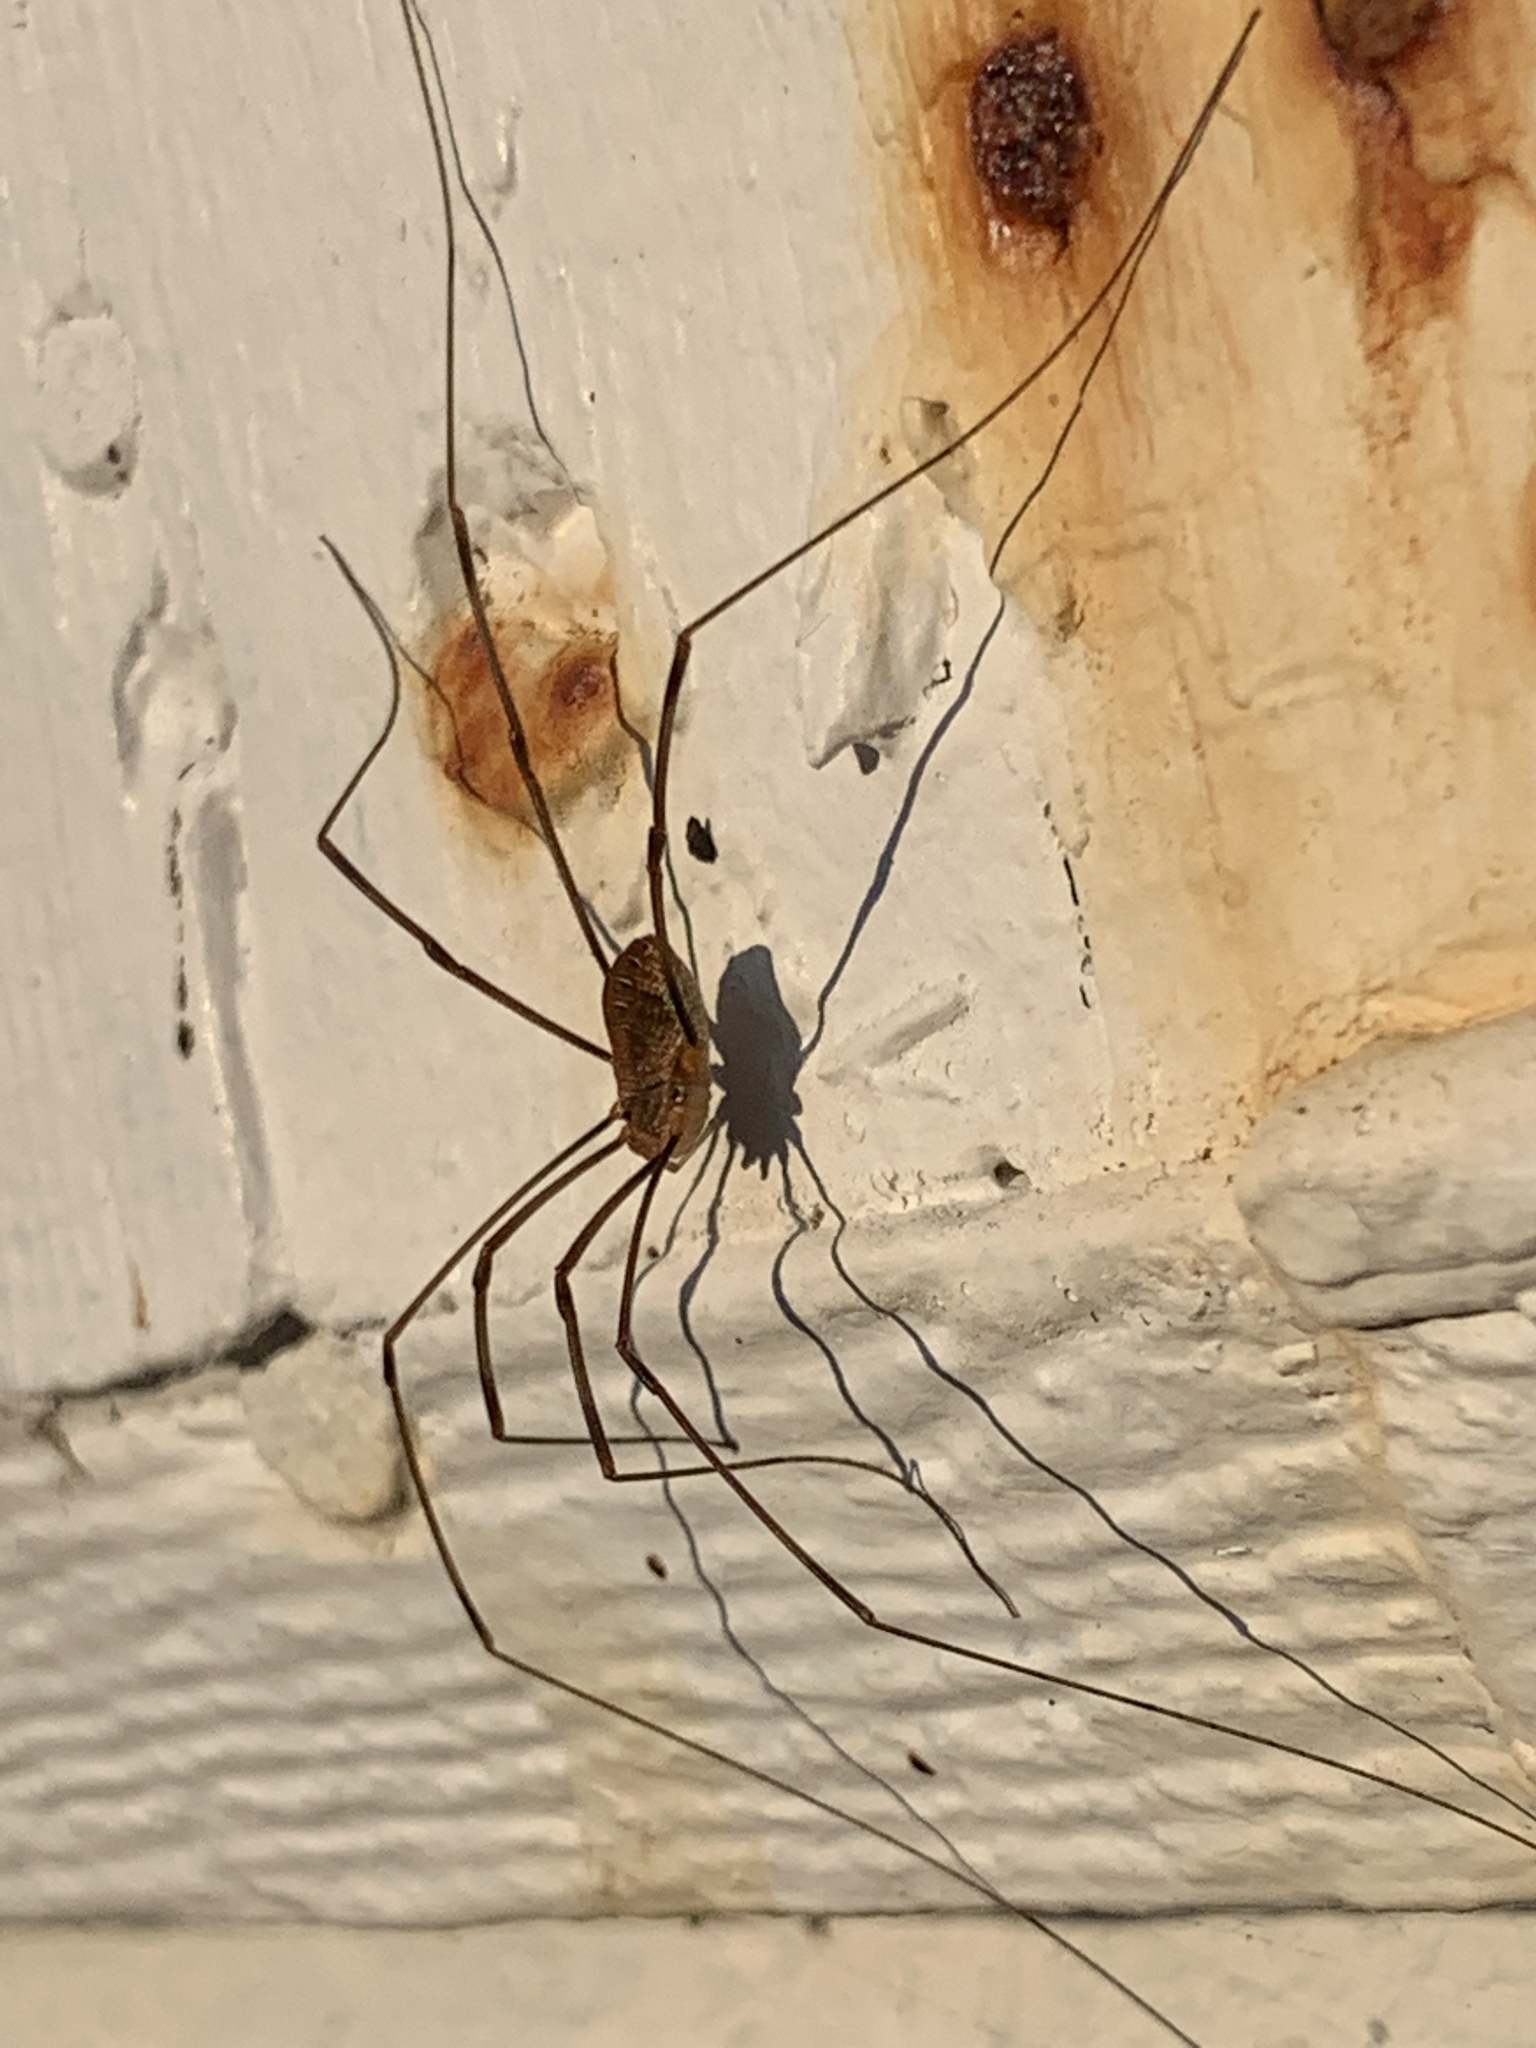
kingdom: Animalia
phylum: Arthropoda
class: Arachnida
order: Opiliones
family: Phalangiidae
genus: Opilio
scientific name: Opilio canestrinii
